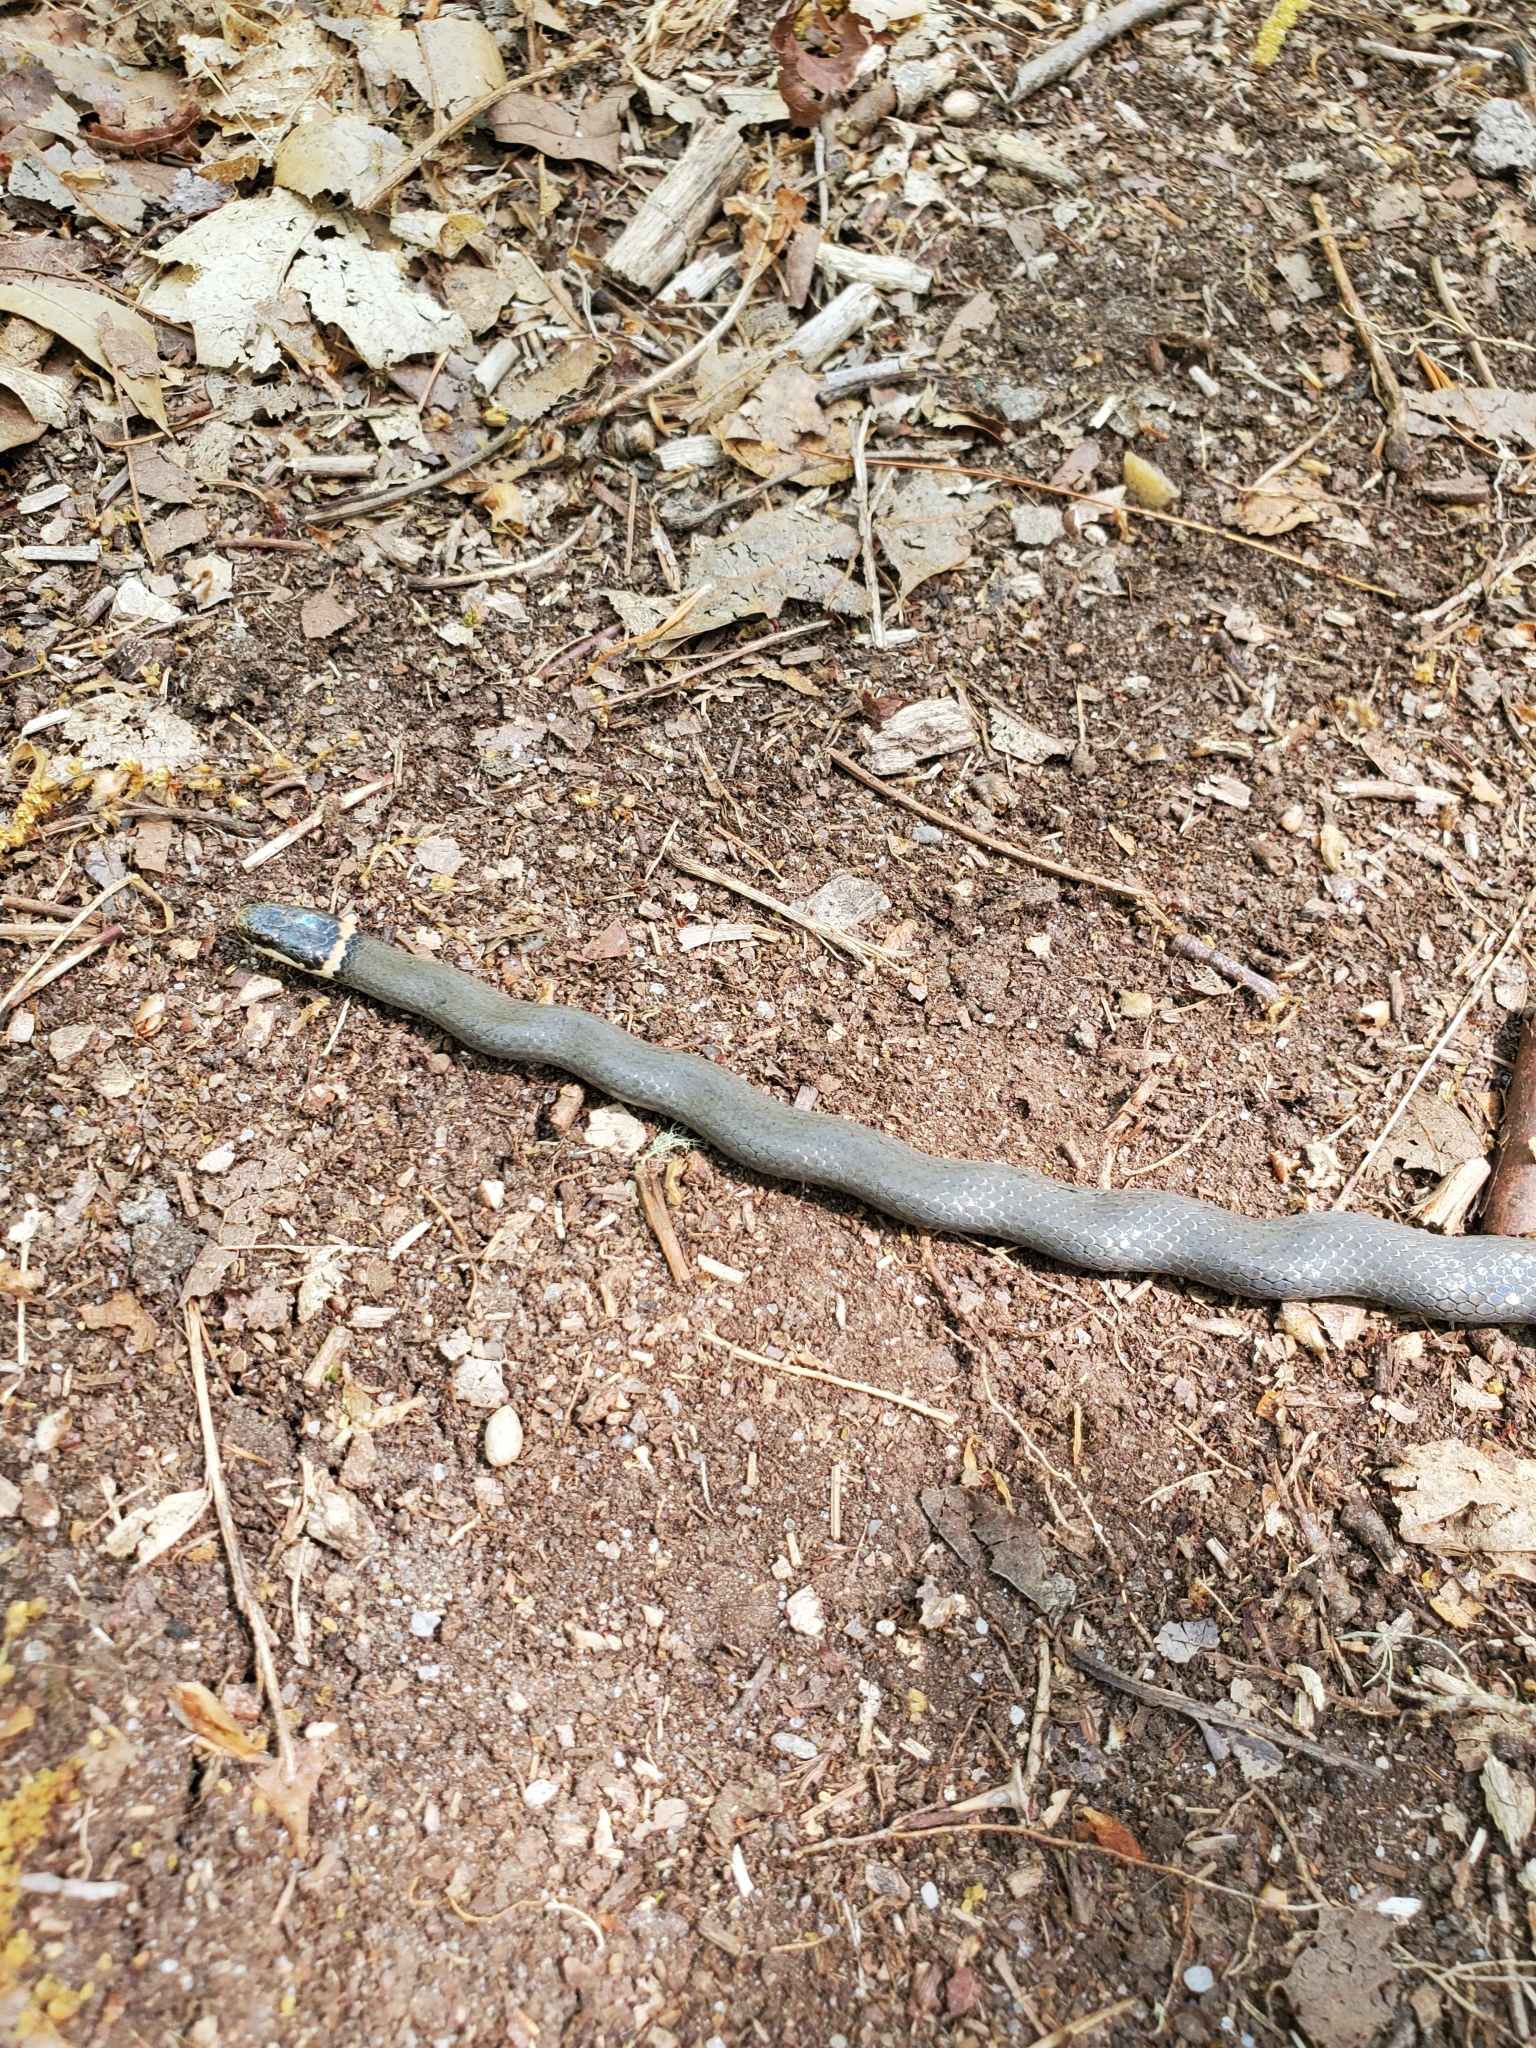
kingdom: Animalia
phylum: Chordata
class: Squamata
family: Colubridae
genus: Diadophis
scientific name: Diadophis punctatus
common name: Ringneck snake
